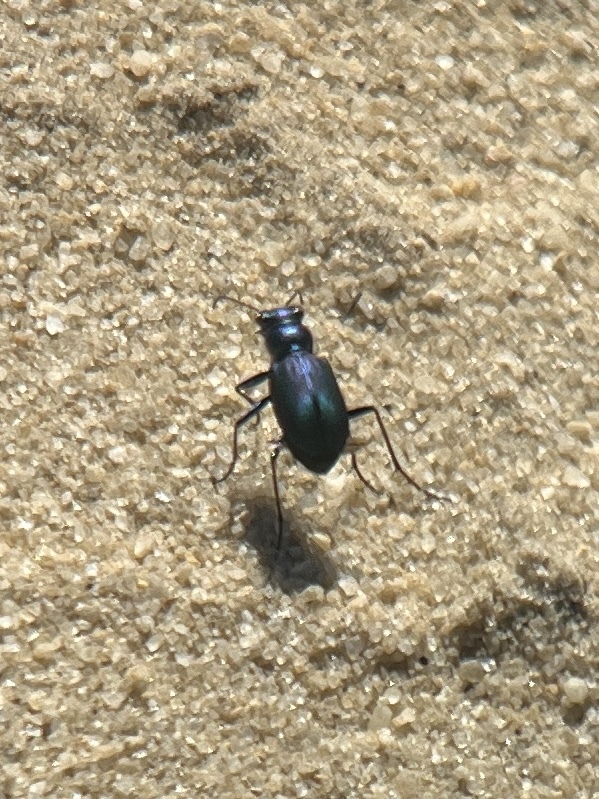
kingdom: Animalia
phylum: Arthropoda
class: Insecta
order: Coleoptera
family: Carabidae
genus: Cicindela
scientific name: Cicindela nigrior
